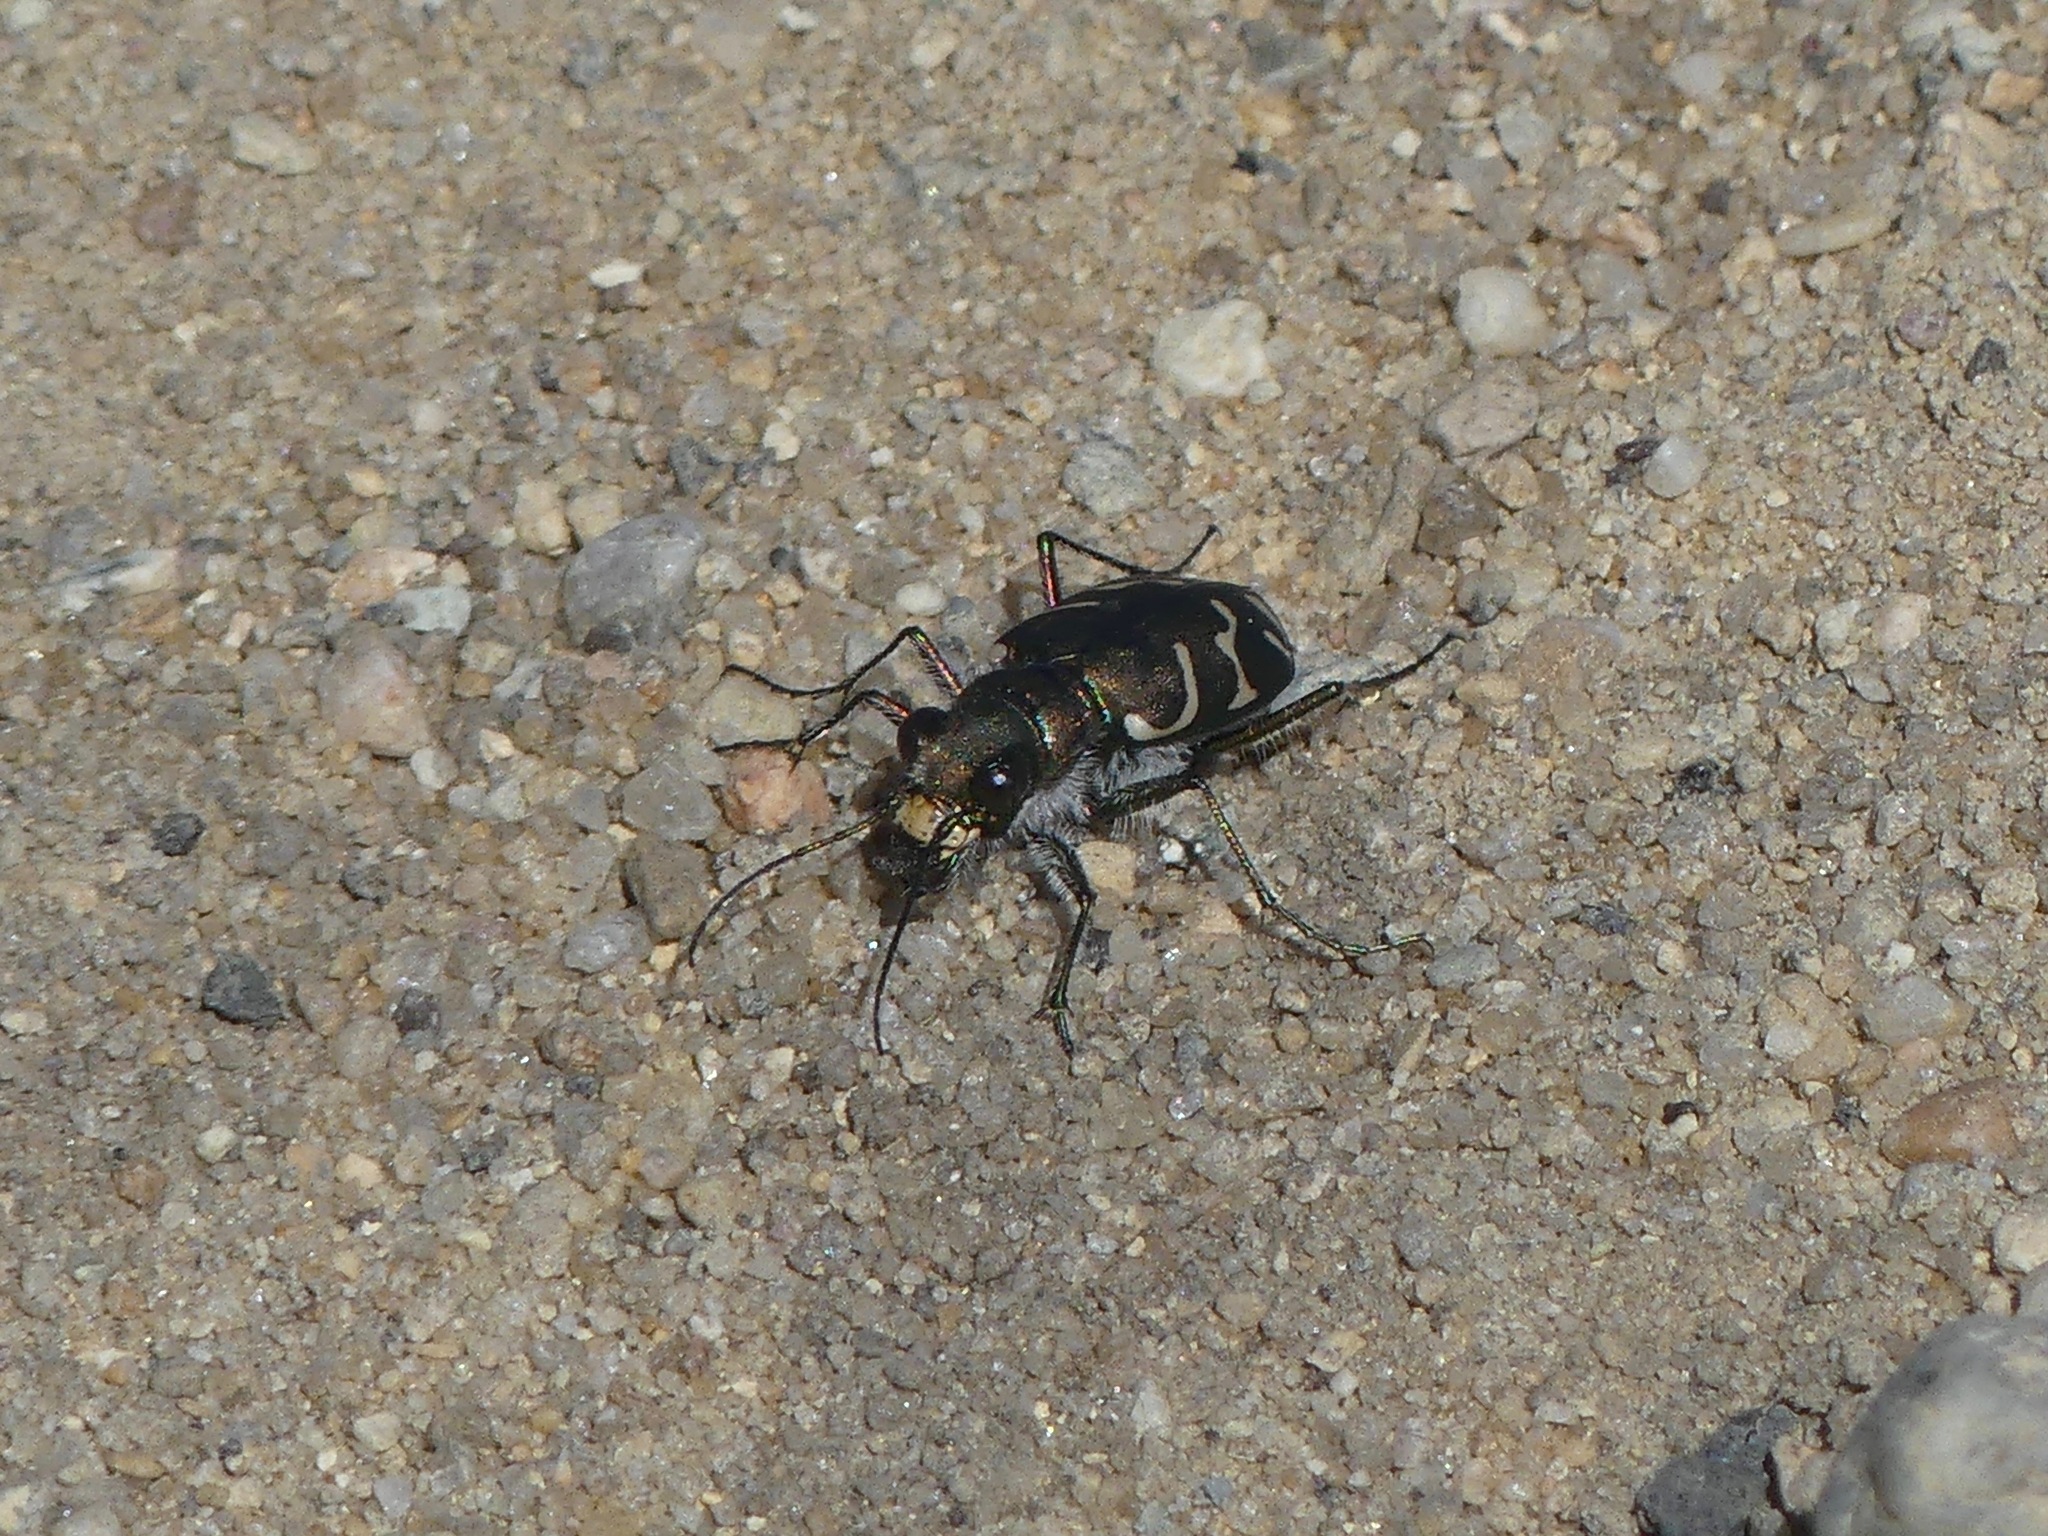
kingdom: Animalia
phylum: Arthropoda
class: Insecta
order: Coleoptera
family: Carabidae
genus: Cicindela
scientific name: Cicindela tranquebarica
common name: Oblique-lined tiger beetle
